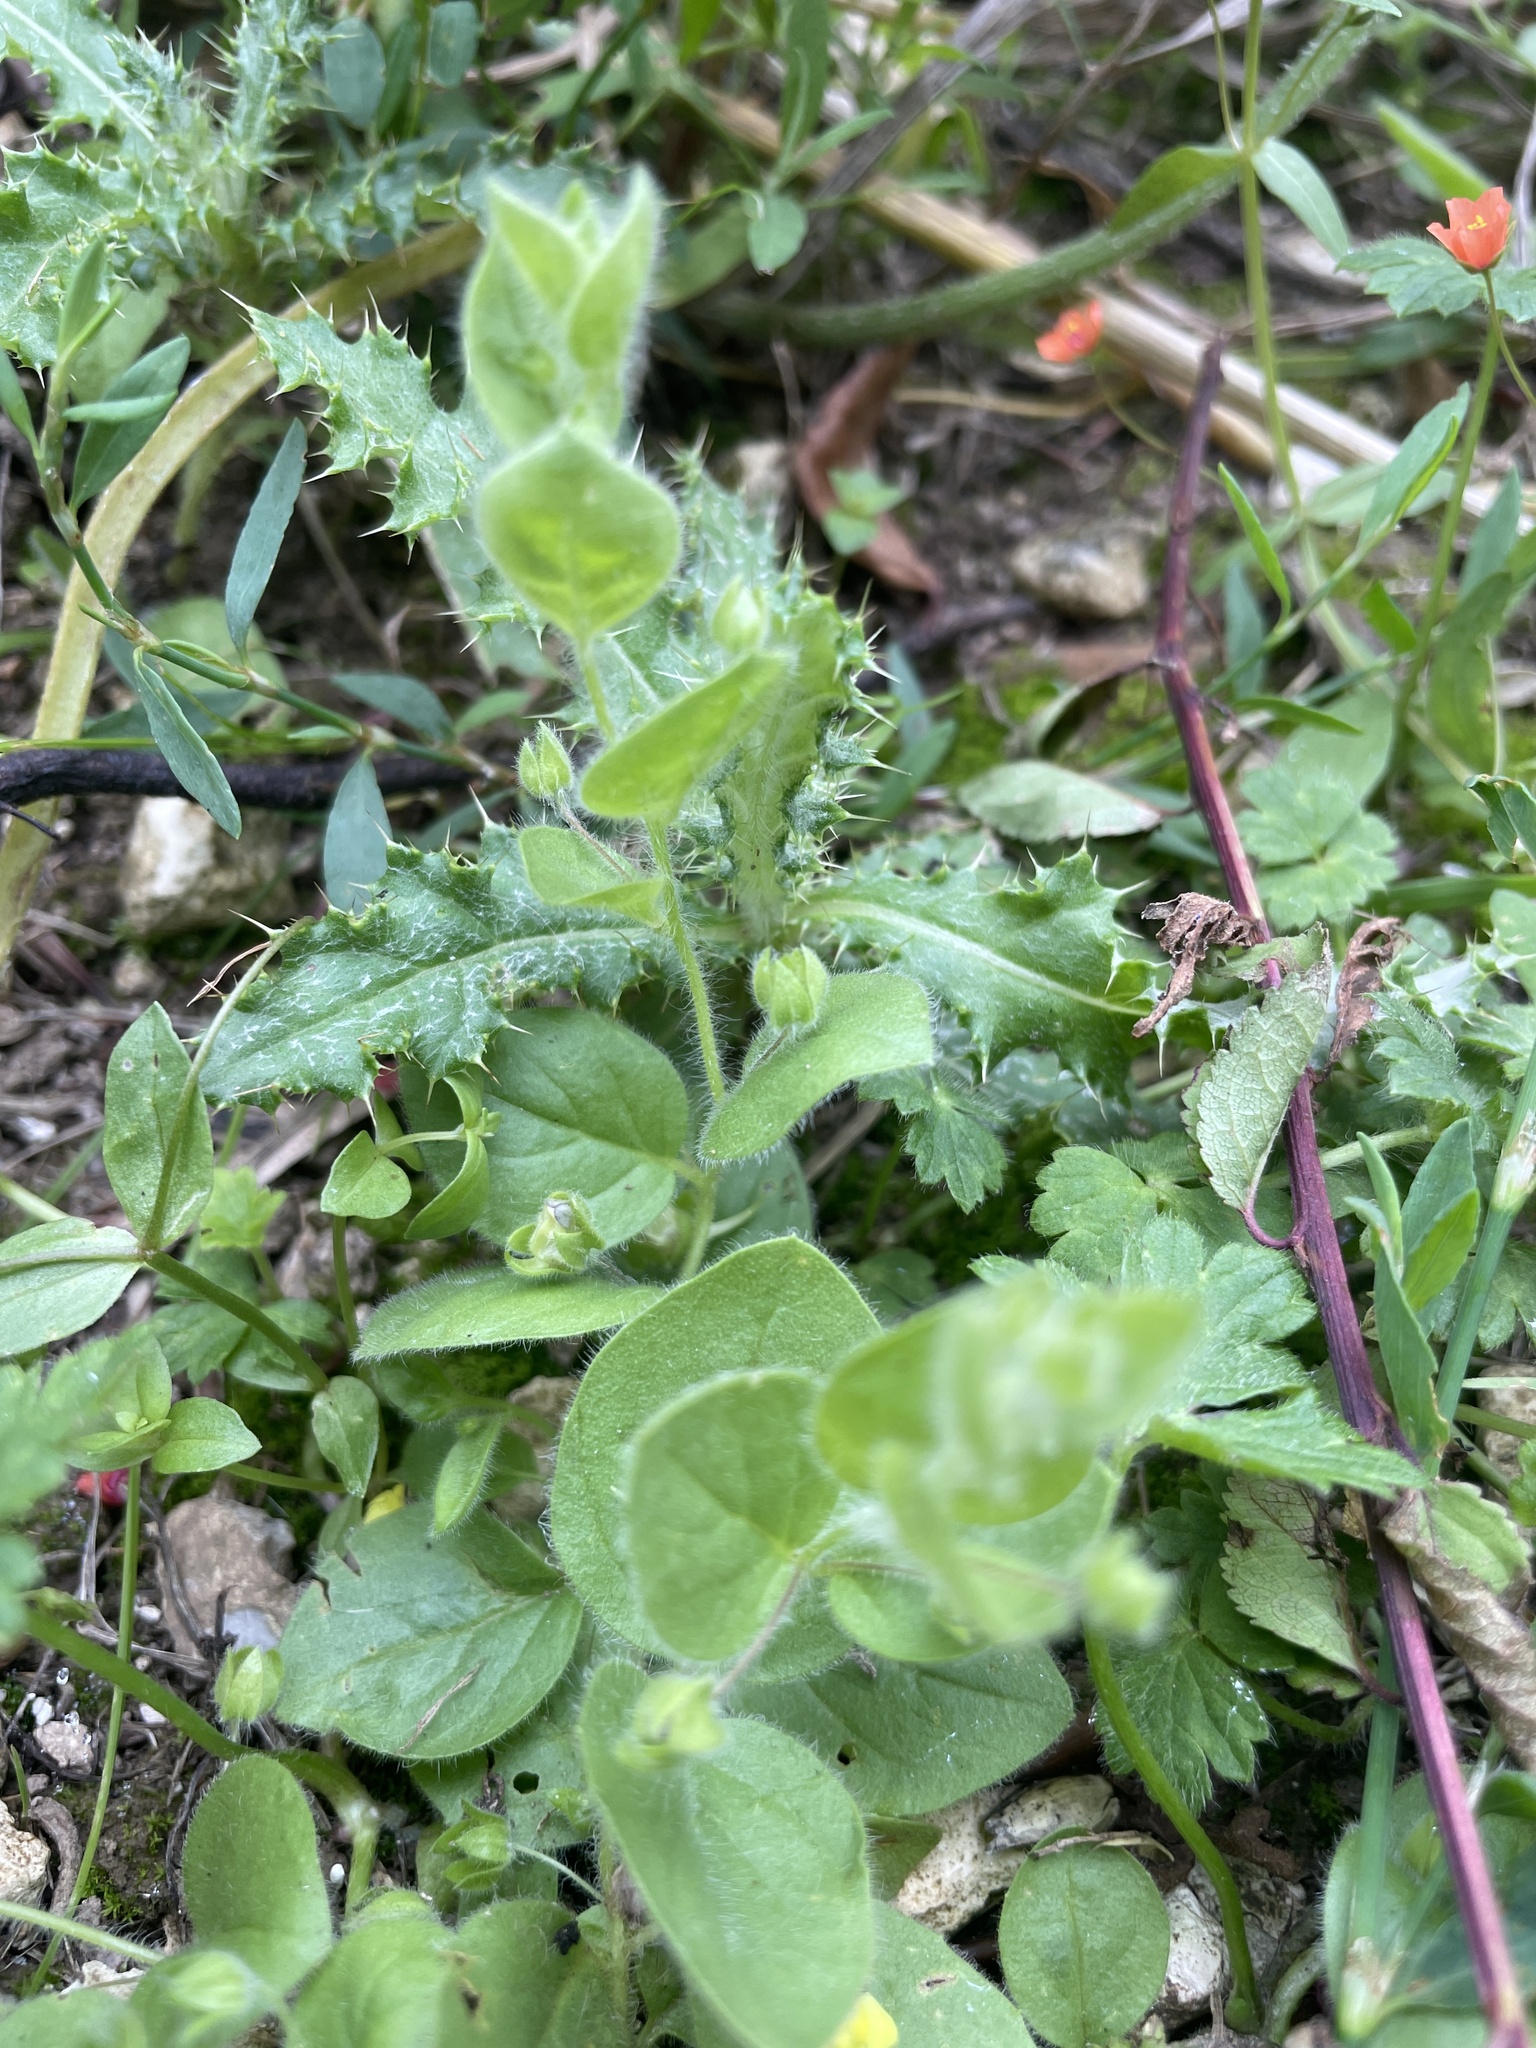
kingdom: Plantae
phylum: Tracheophyta
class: Magnoliopsida
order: Lamiales
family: Plantaginaceae
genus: Kickxia
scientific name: Kickxia spuria
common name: Round-leaved fluellen
